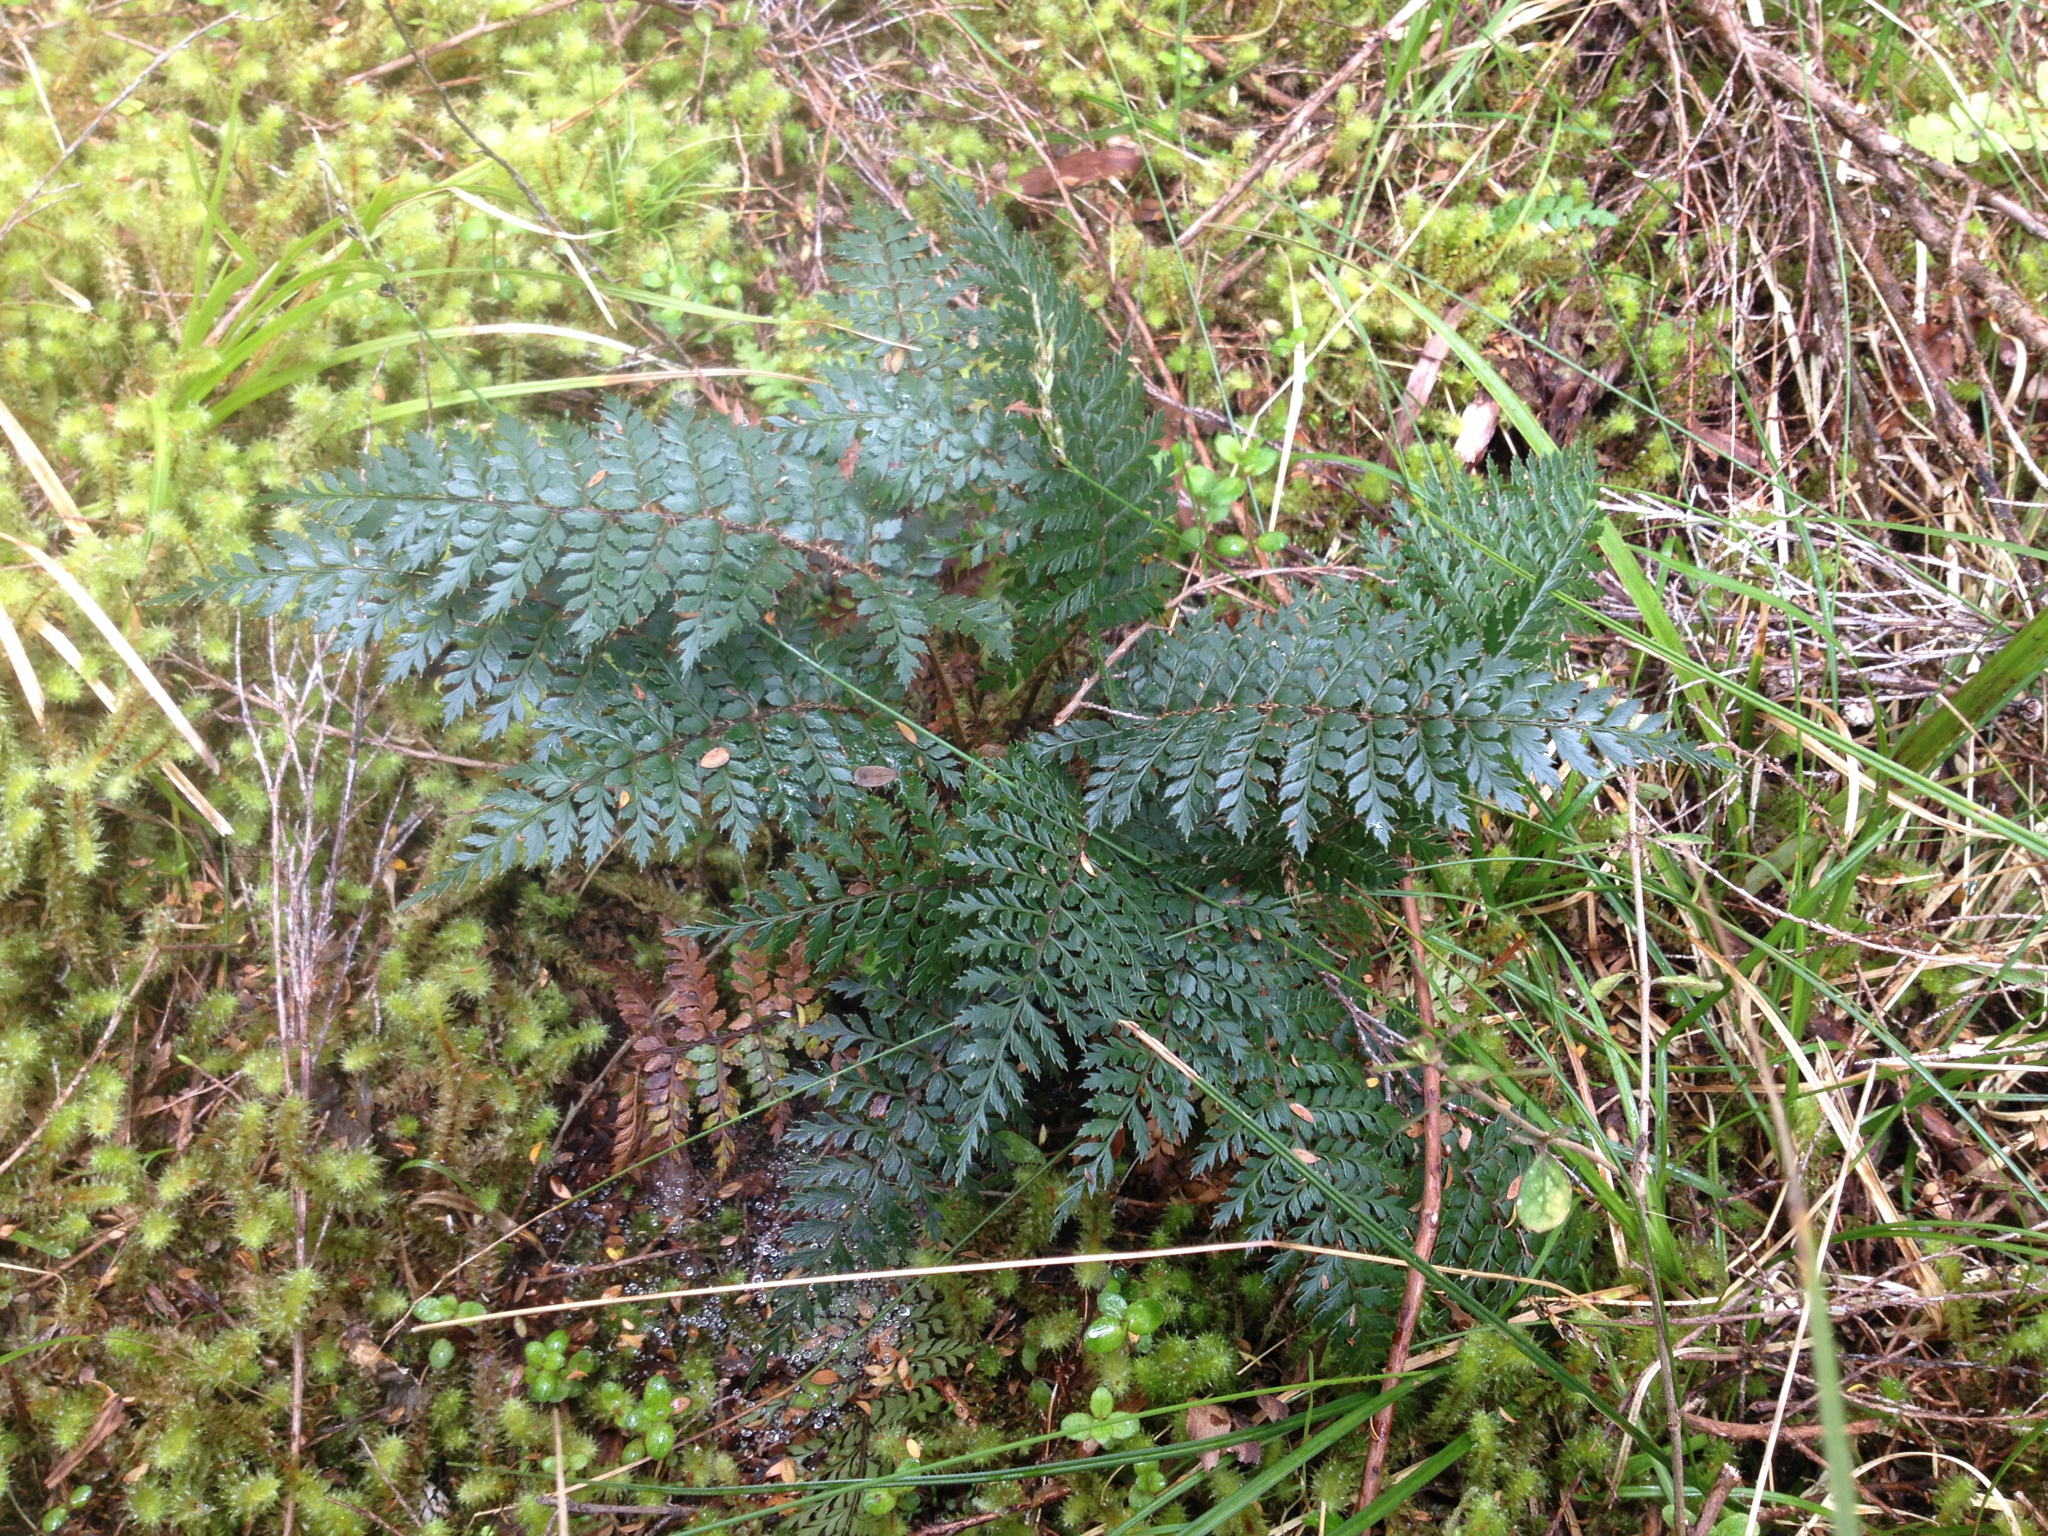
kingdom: Plantae
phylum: Tracheophyta
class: Polypodiopsida
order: Polypodiales
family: Dryopteridaceae
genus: Polystichum
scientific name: Polystichum vestitum
